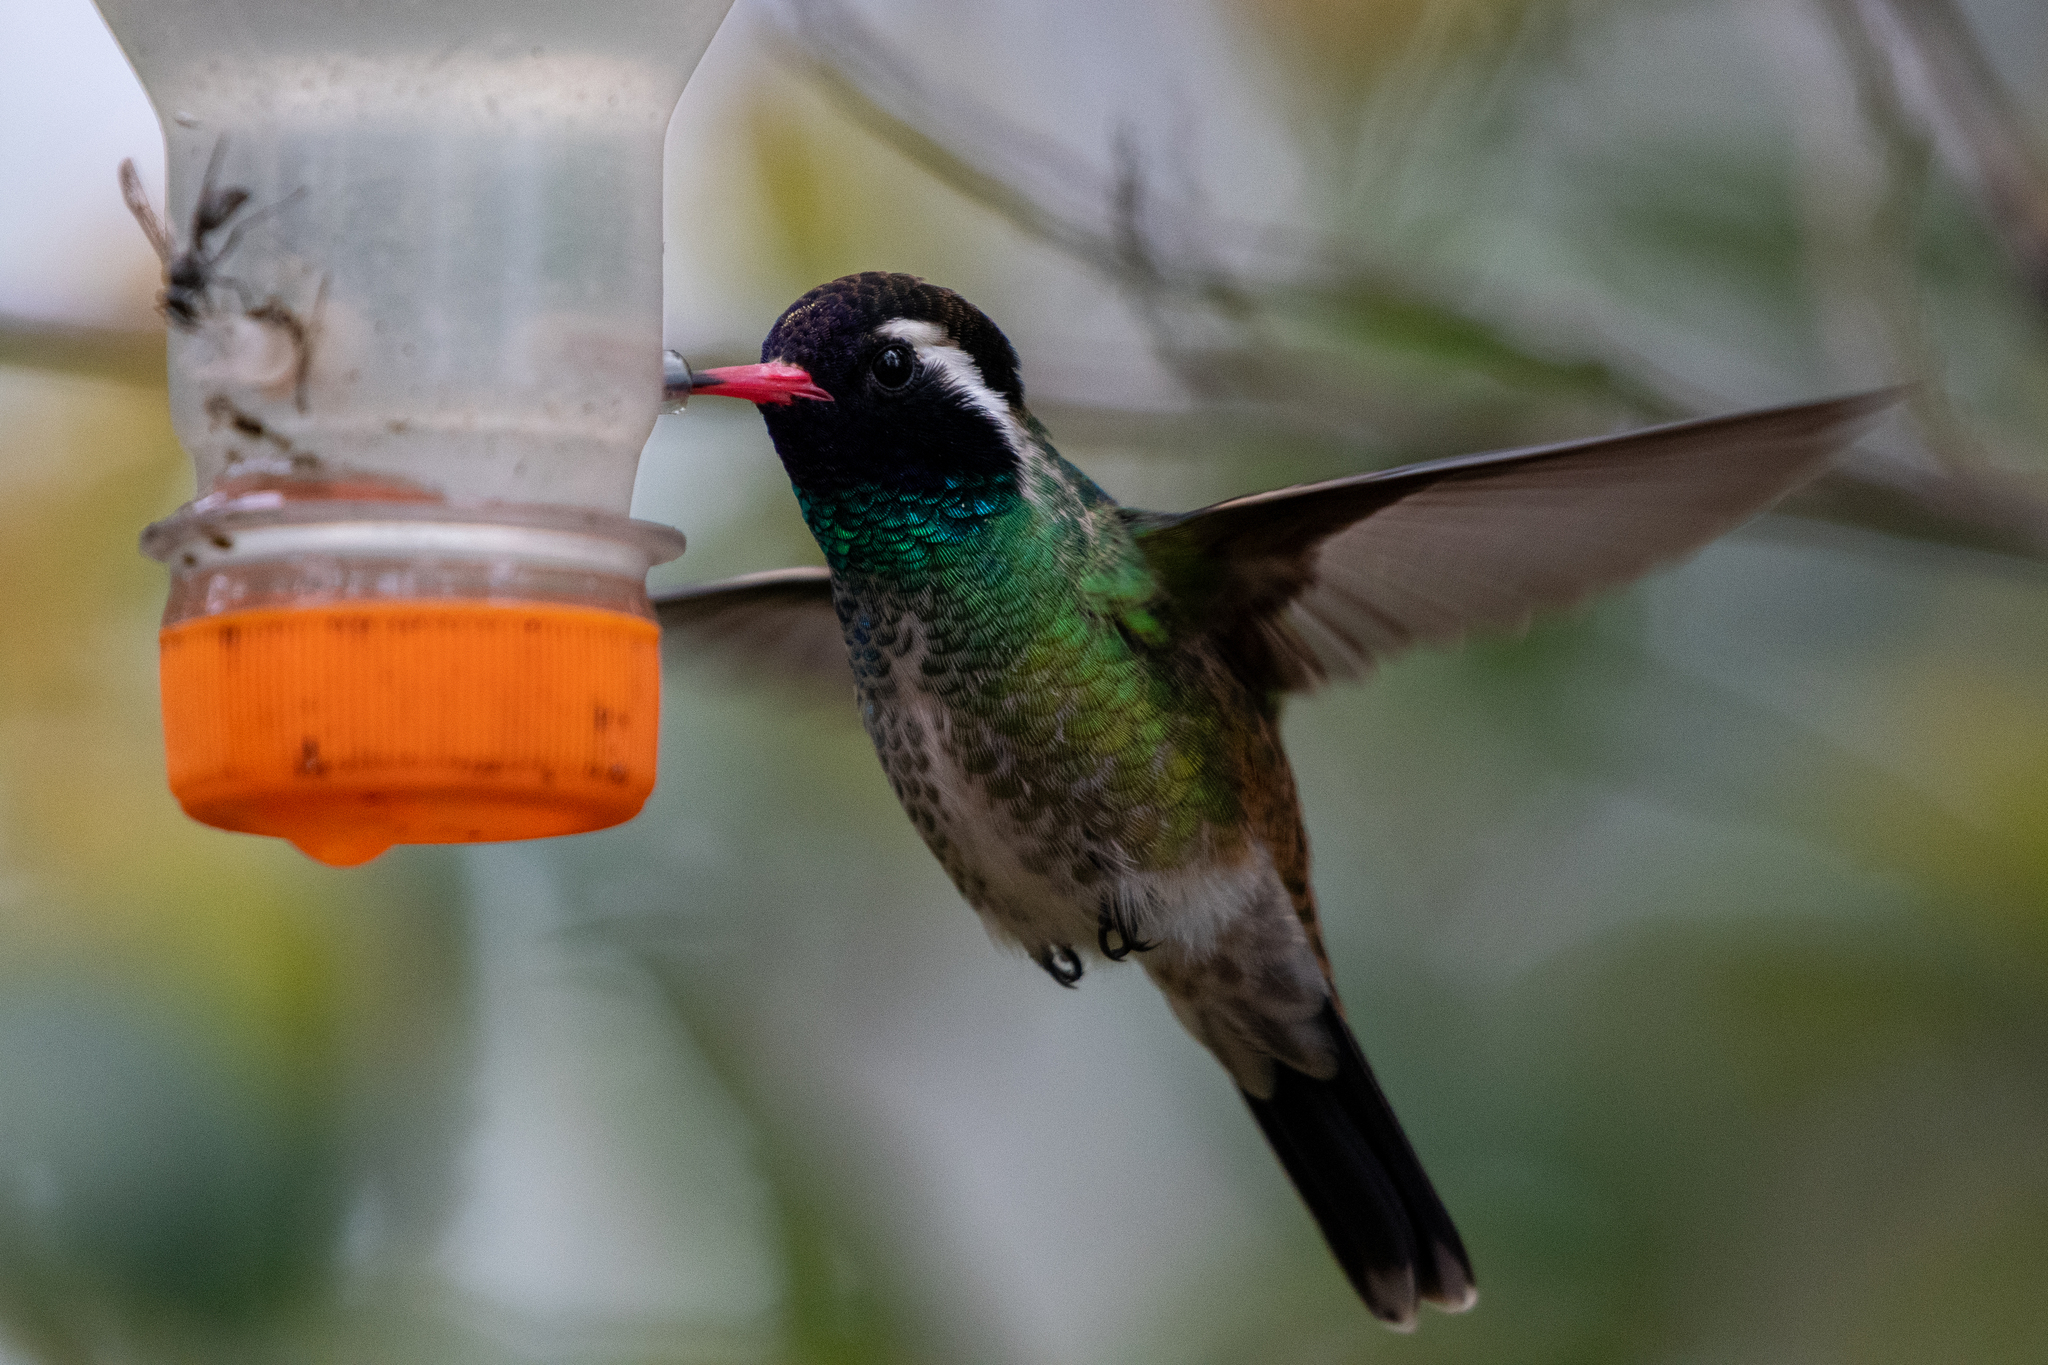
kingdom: Animalia
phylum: Chordata
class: Aves
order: Apodiformes
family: Trochilidae
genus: Basilinna
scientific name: Basilinna leucotis
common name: White-eared hummingbird
